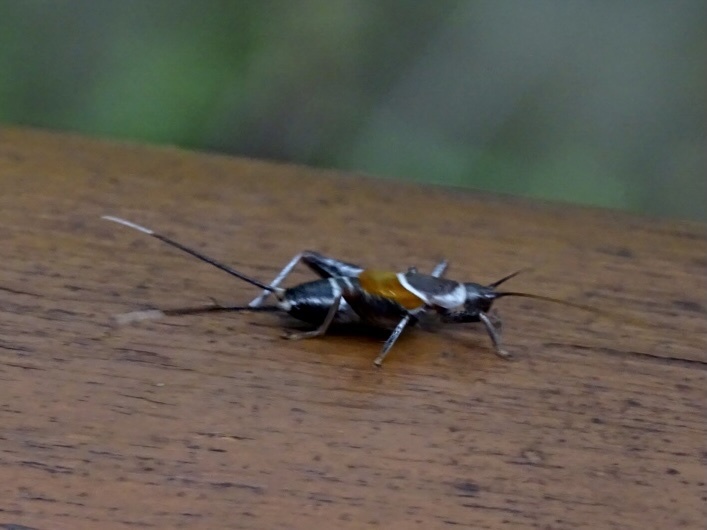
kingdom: Animalia
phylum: Arthropoda
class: Insecta
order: Orthoptera
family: Mogoplistidae
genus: Ornebius
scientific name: Ornebius fuscicerci
